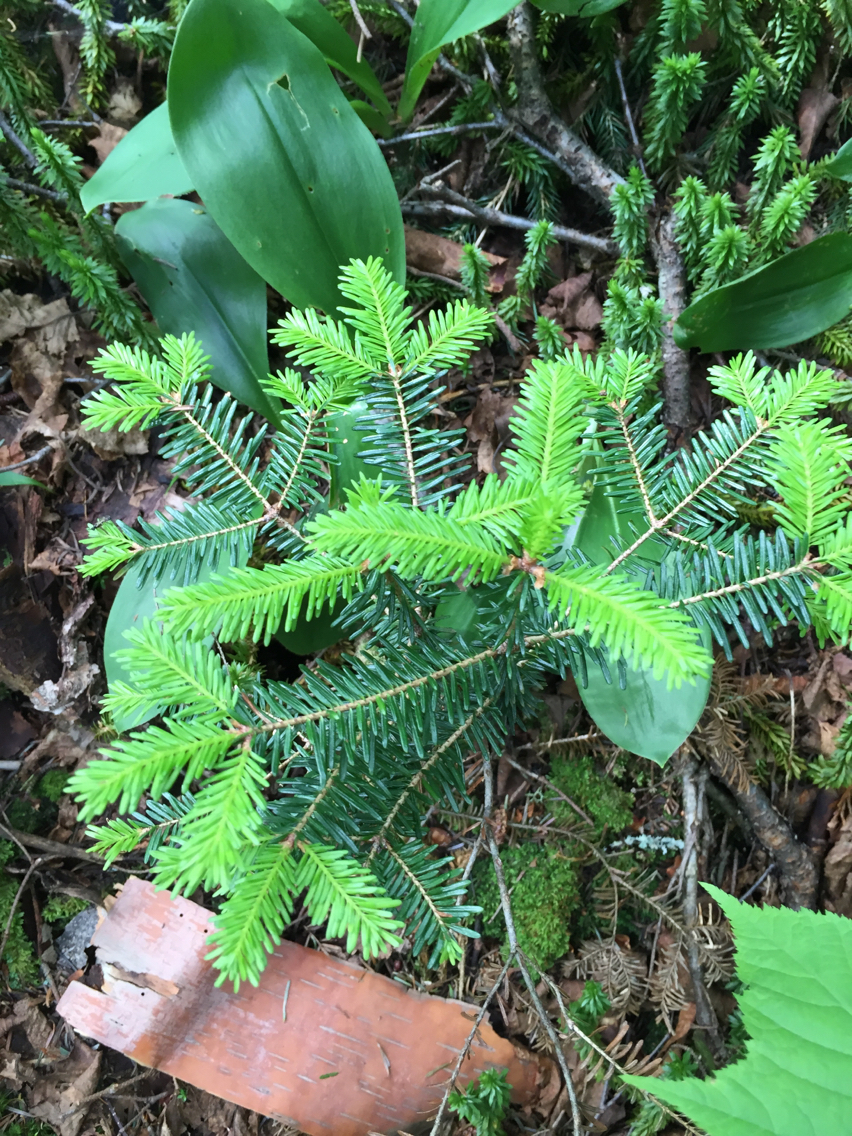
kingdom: Plantae
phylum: Tracheophyta
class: Pinopsida
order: Pinales
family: Pinaceae
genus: Abies
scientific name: Abies balsamea
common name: Balsam fir
